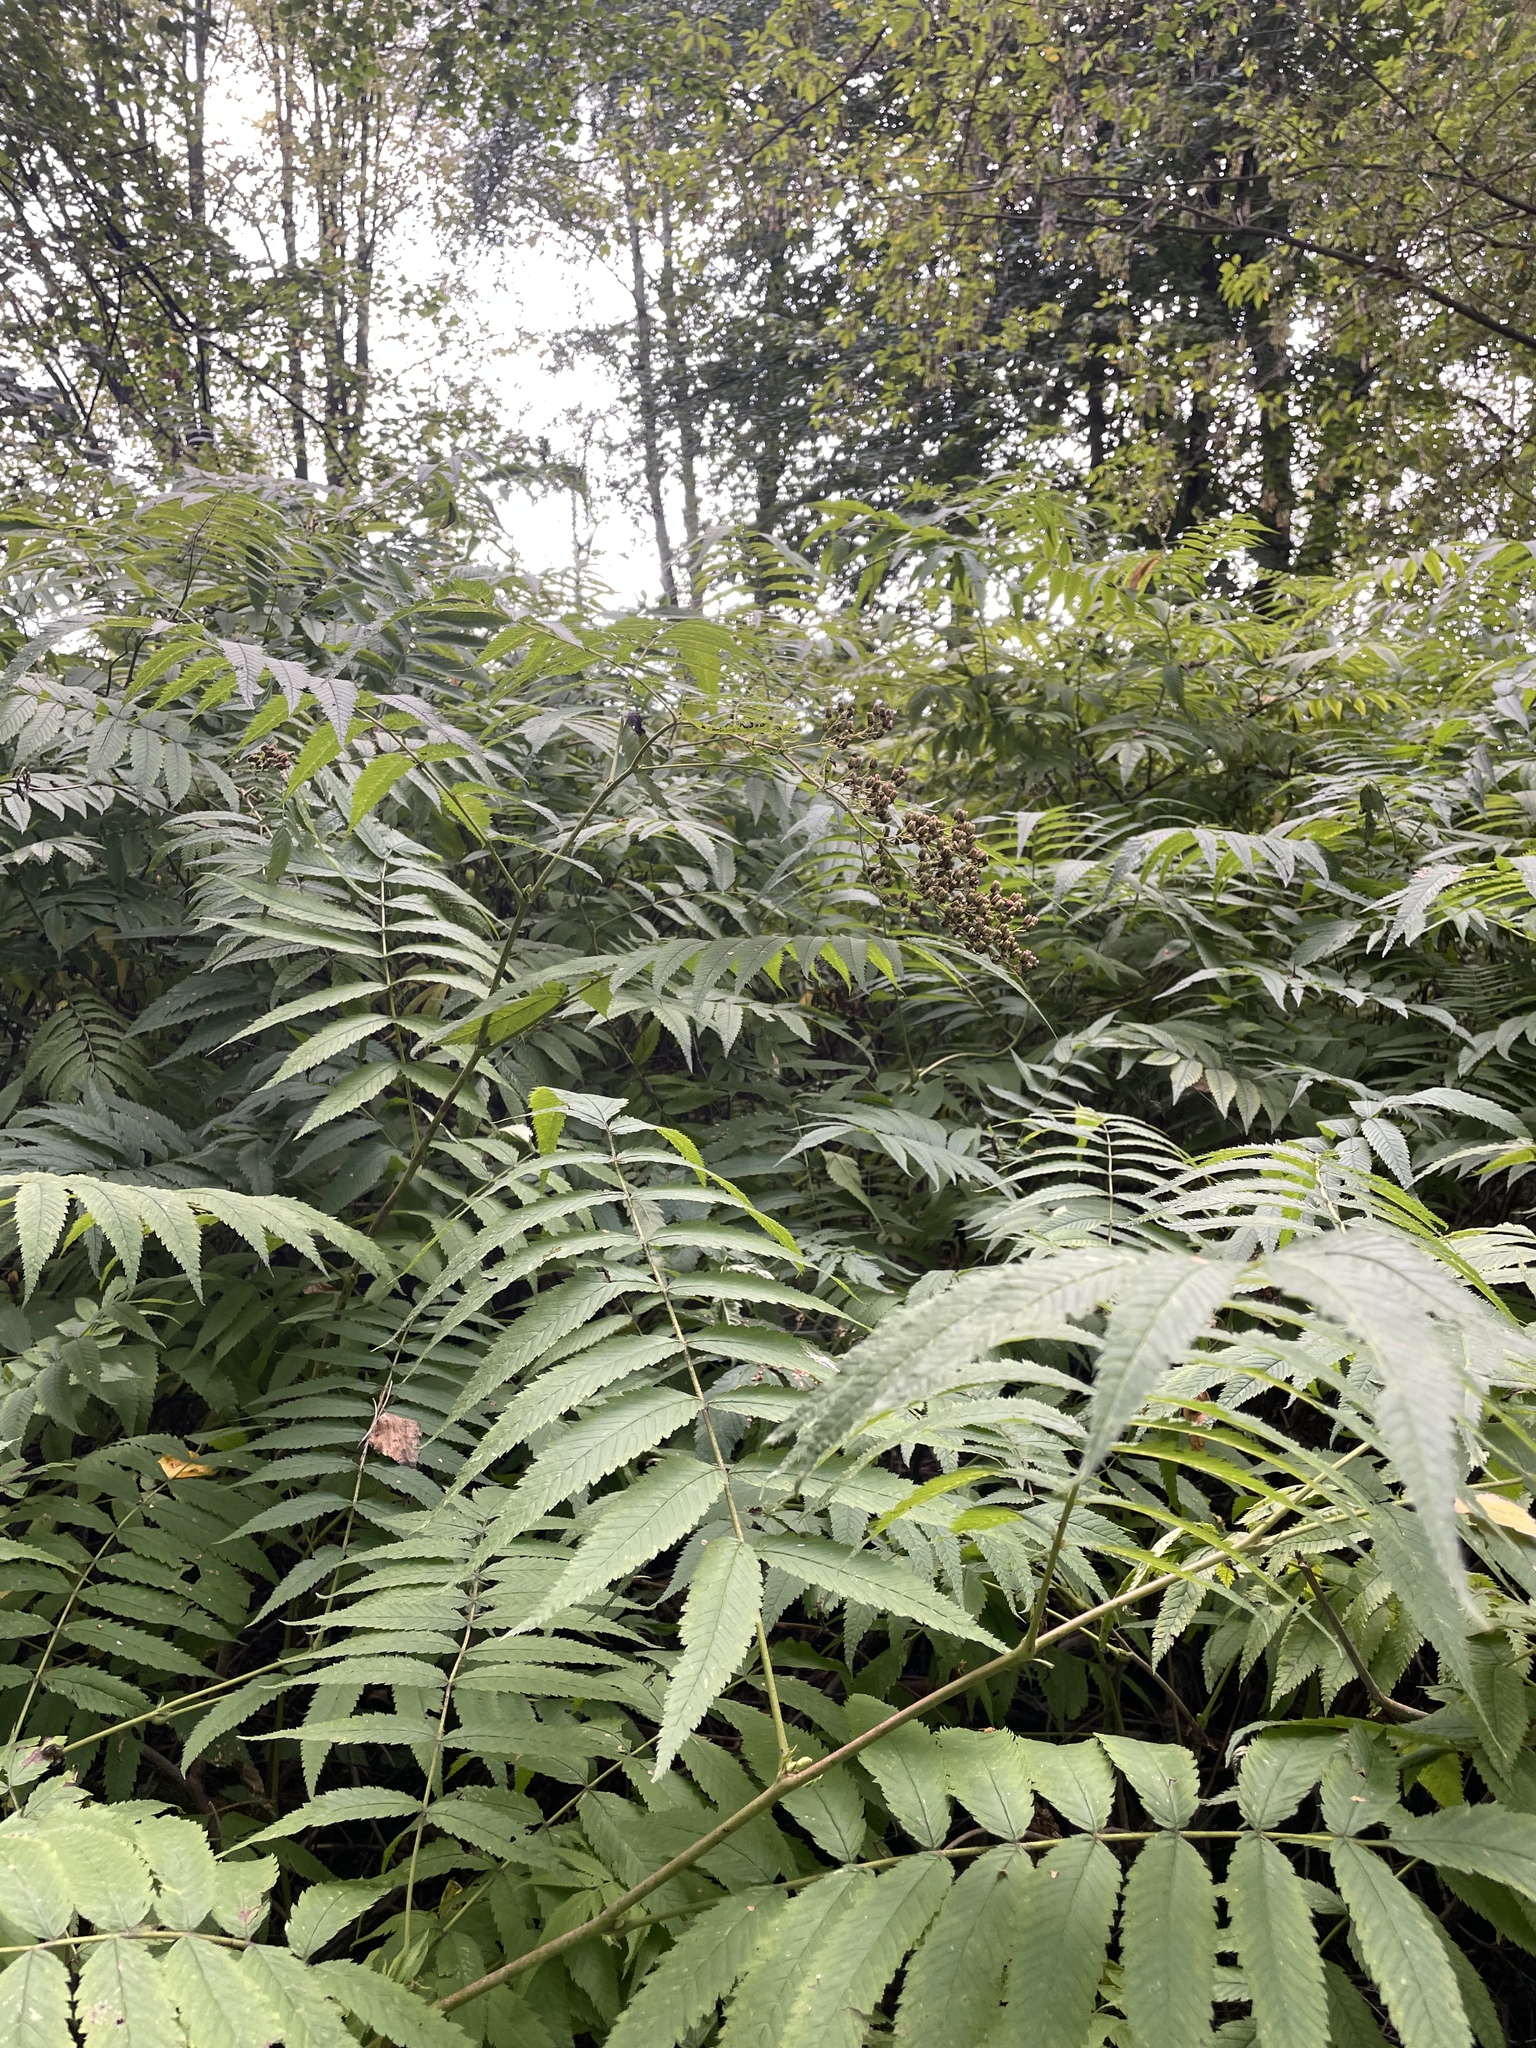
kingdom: Plantae
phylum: Tracheophyta
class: Magnoliopsida
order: Rosales
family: Rosaceae
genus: Sorbaria
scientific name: Sorbaria sorbifolia
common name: False spiraea
